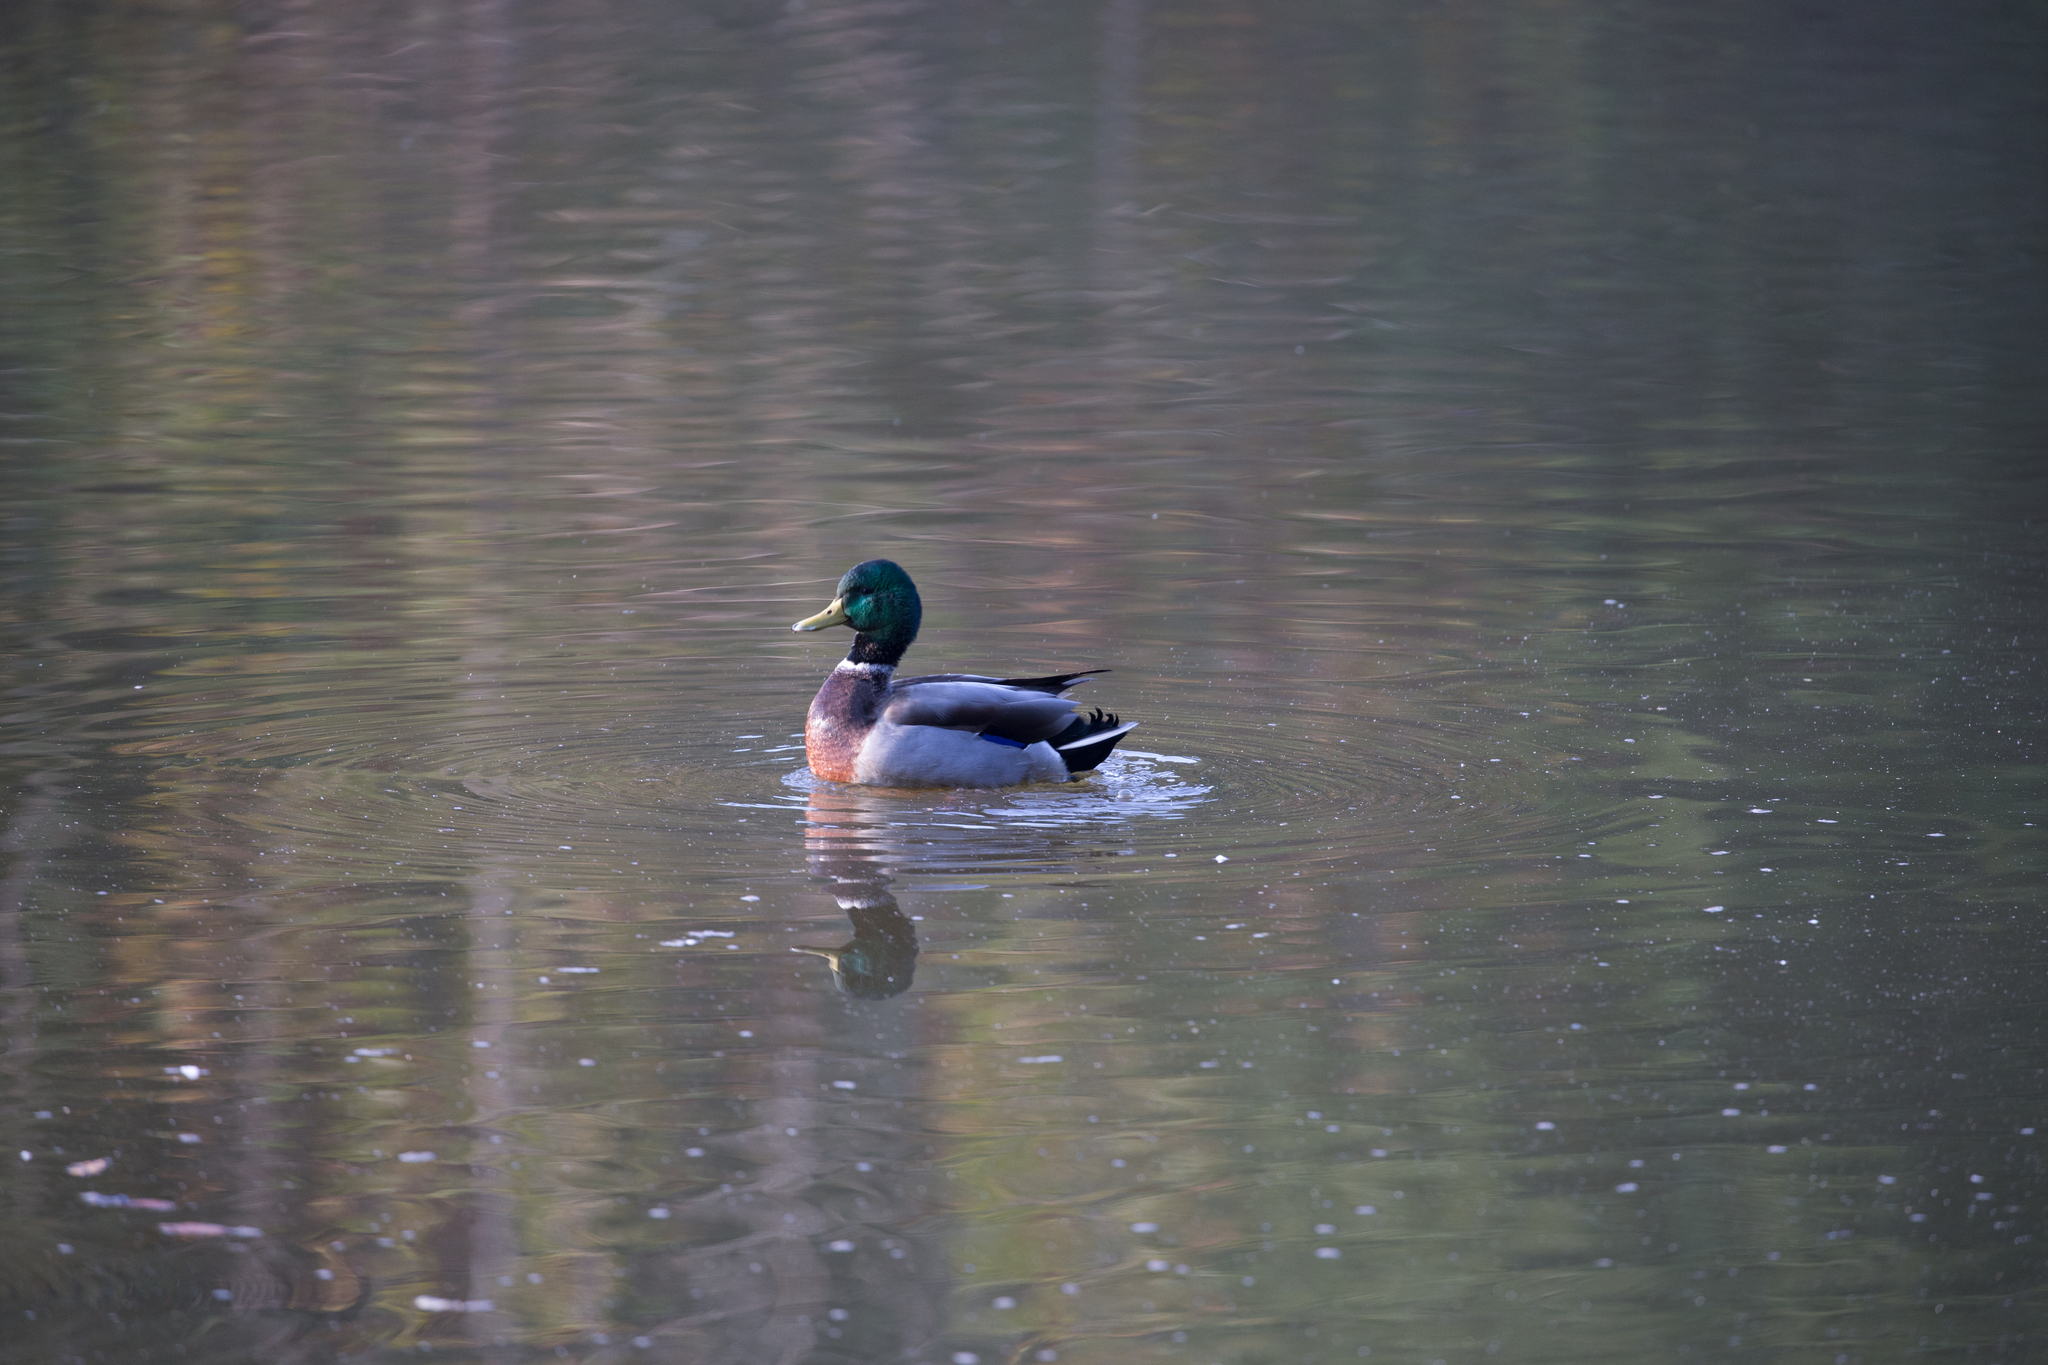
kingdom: Animalia
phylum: Chordata
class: Aves
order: Anseriformes
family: Anatidae
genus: Anas
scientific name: Anas platyrhynchos
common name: Mallard
